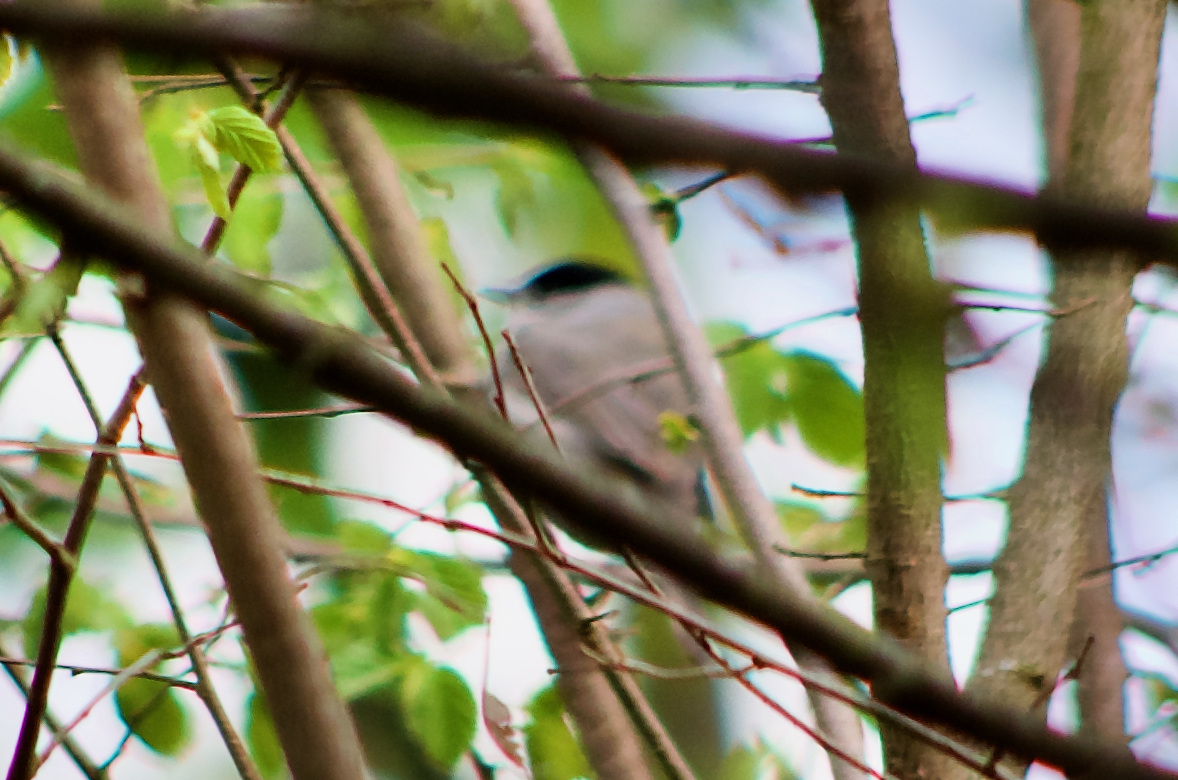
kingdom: Animalia
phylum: Chordata
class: Aves
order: Passeriformes
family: Sylviidae
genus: Sylvia
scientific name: Sylvia atricapilla
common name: Eurasian blackcap
